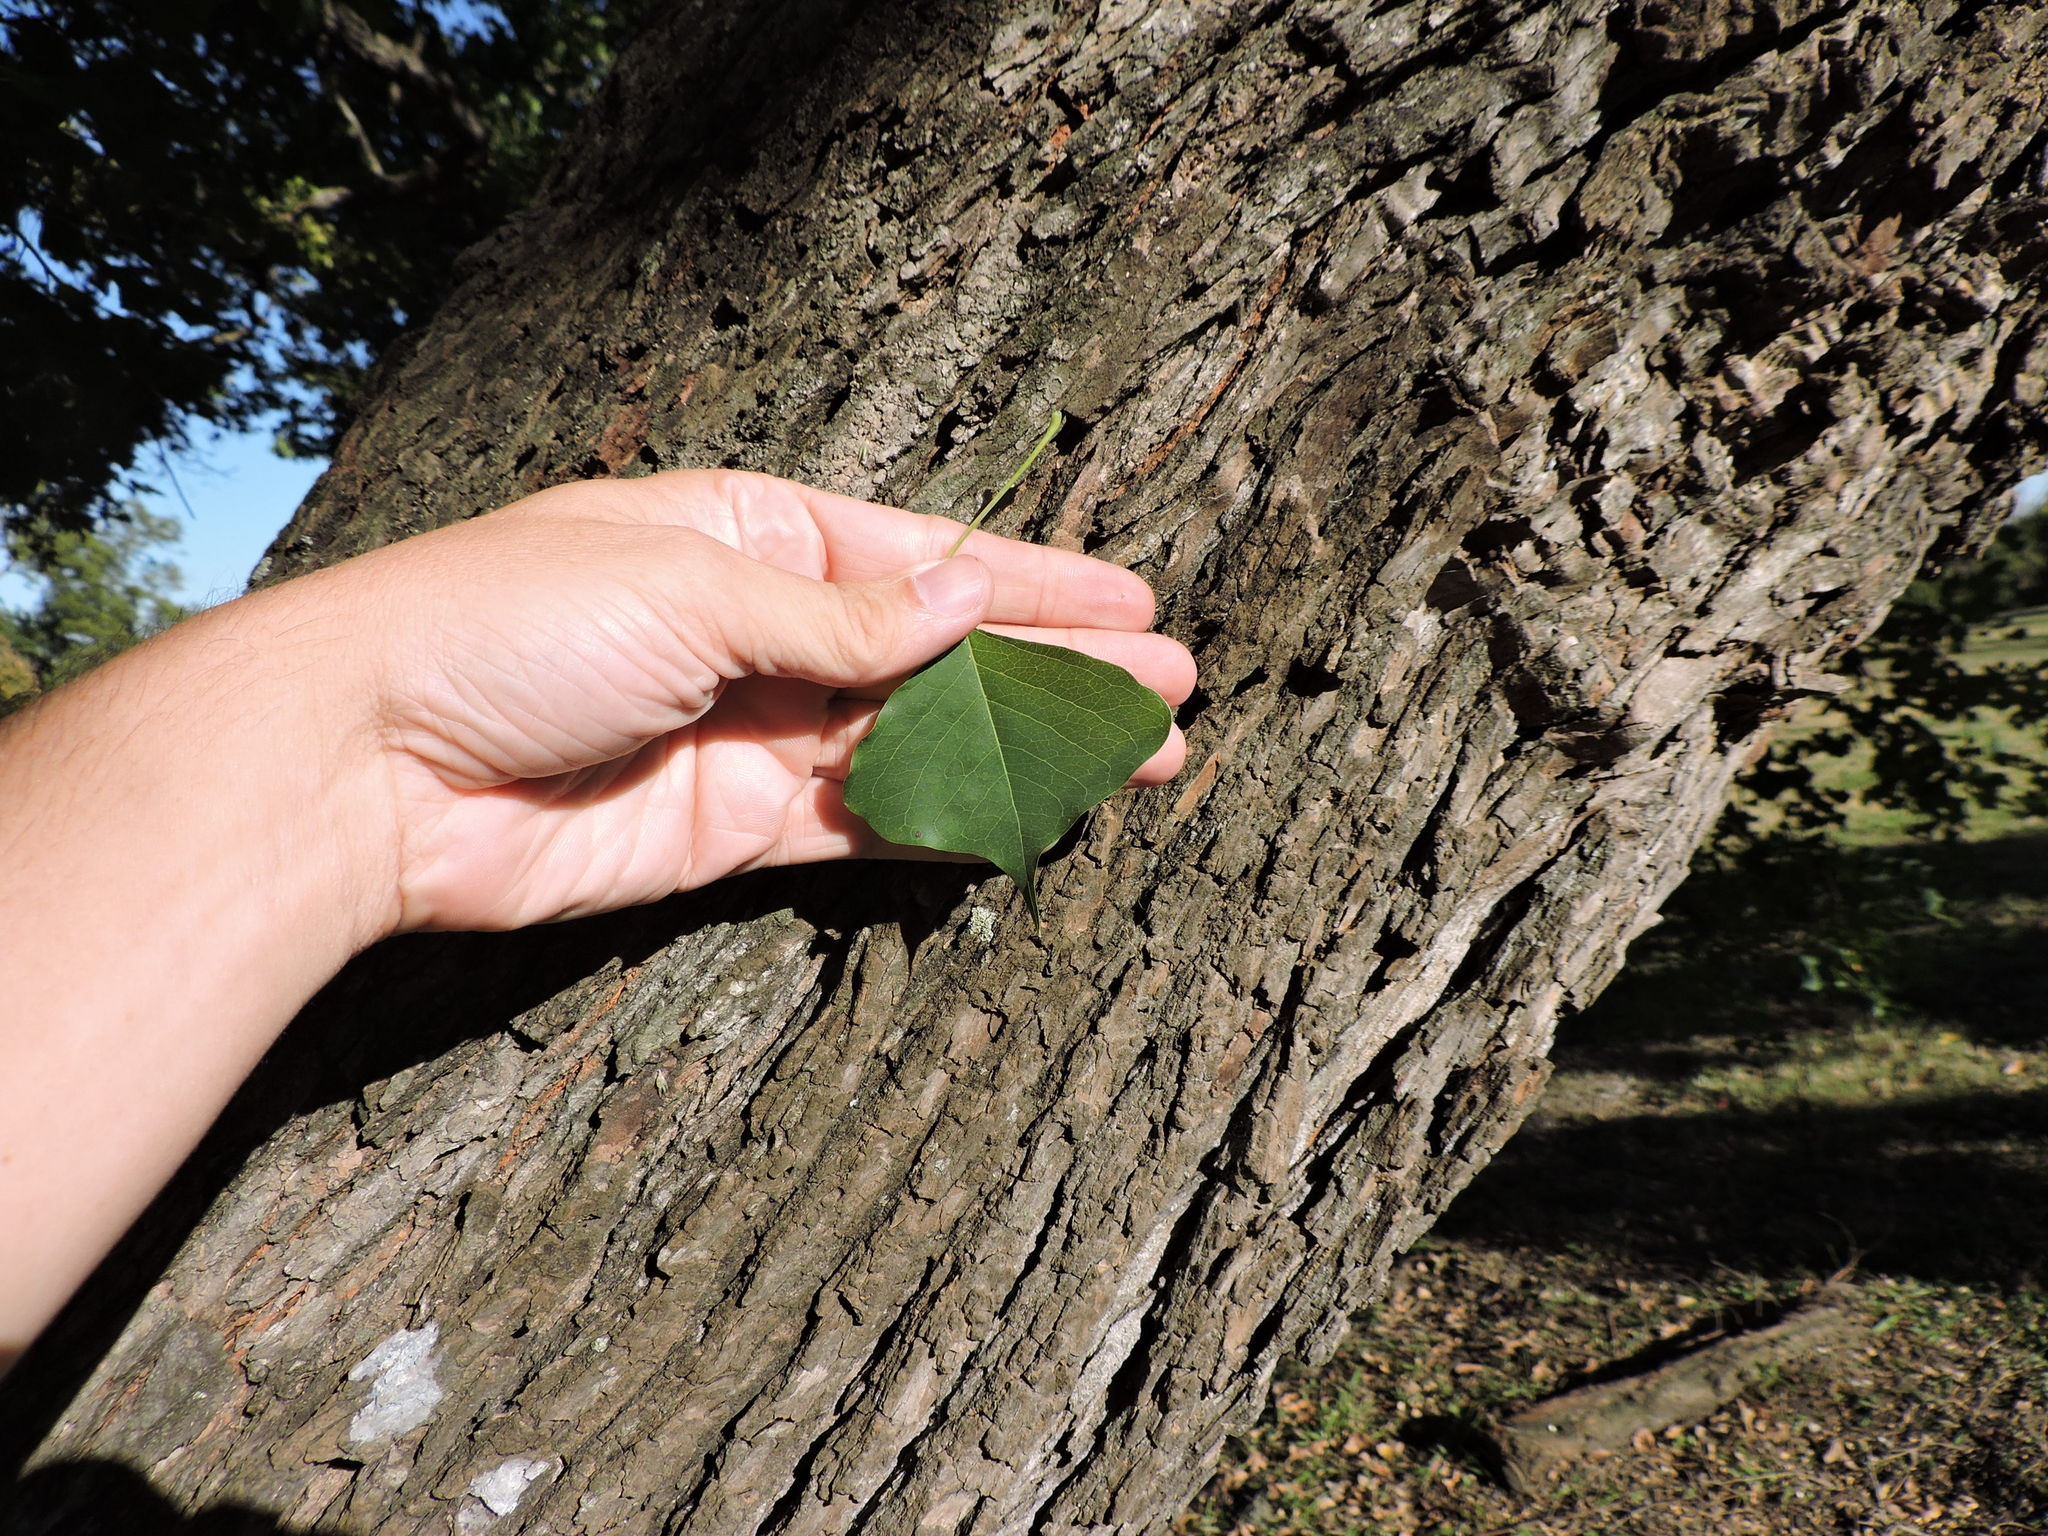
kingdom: Plantae
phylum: Tracheophyta
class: Magnoliopsida
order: Malpighiales
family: Euphorbiaceae
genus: Triadica
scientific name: Triadica sebifera
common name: Chinese tallow
